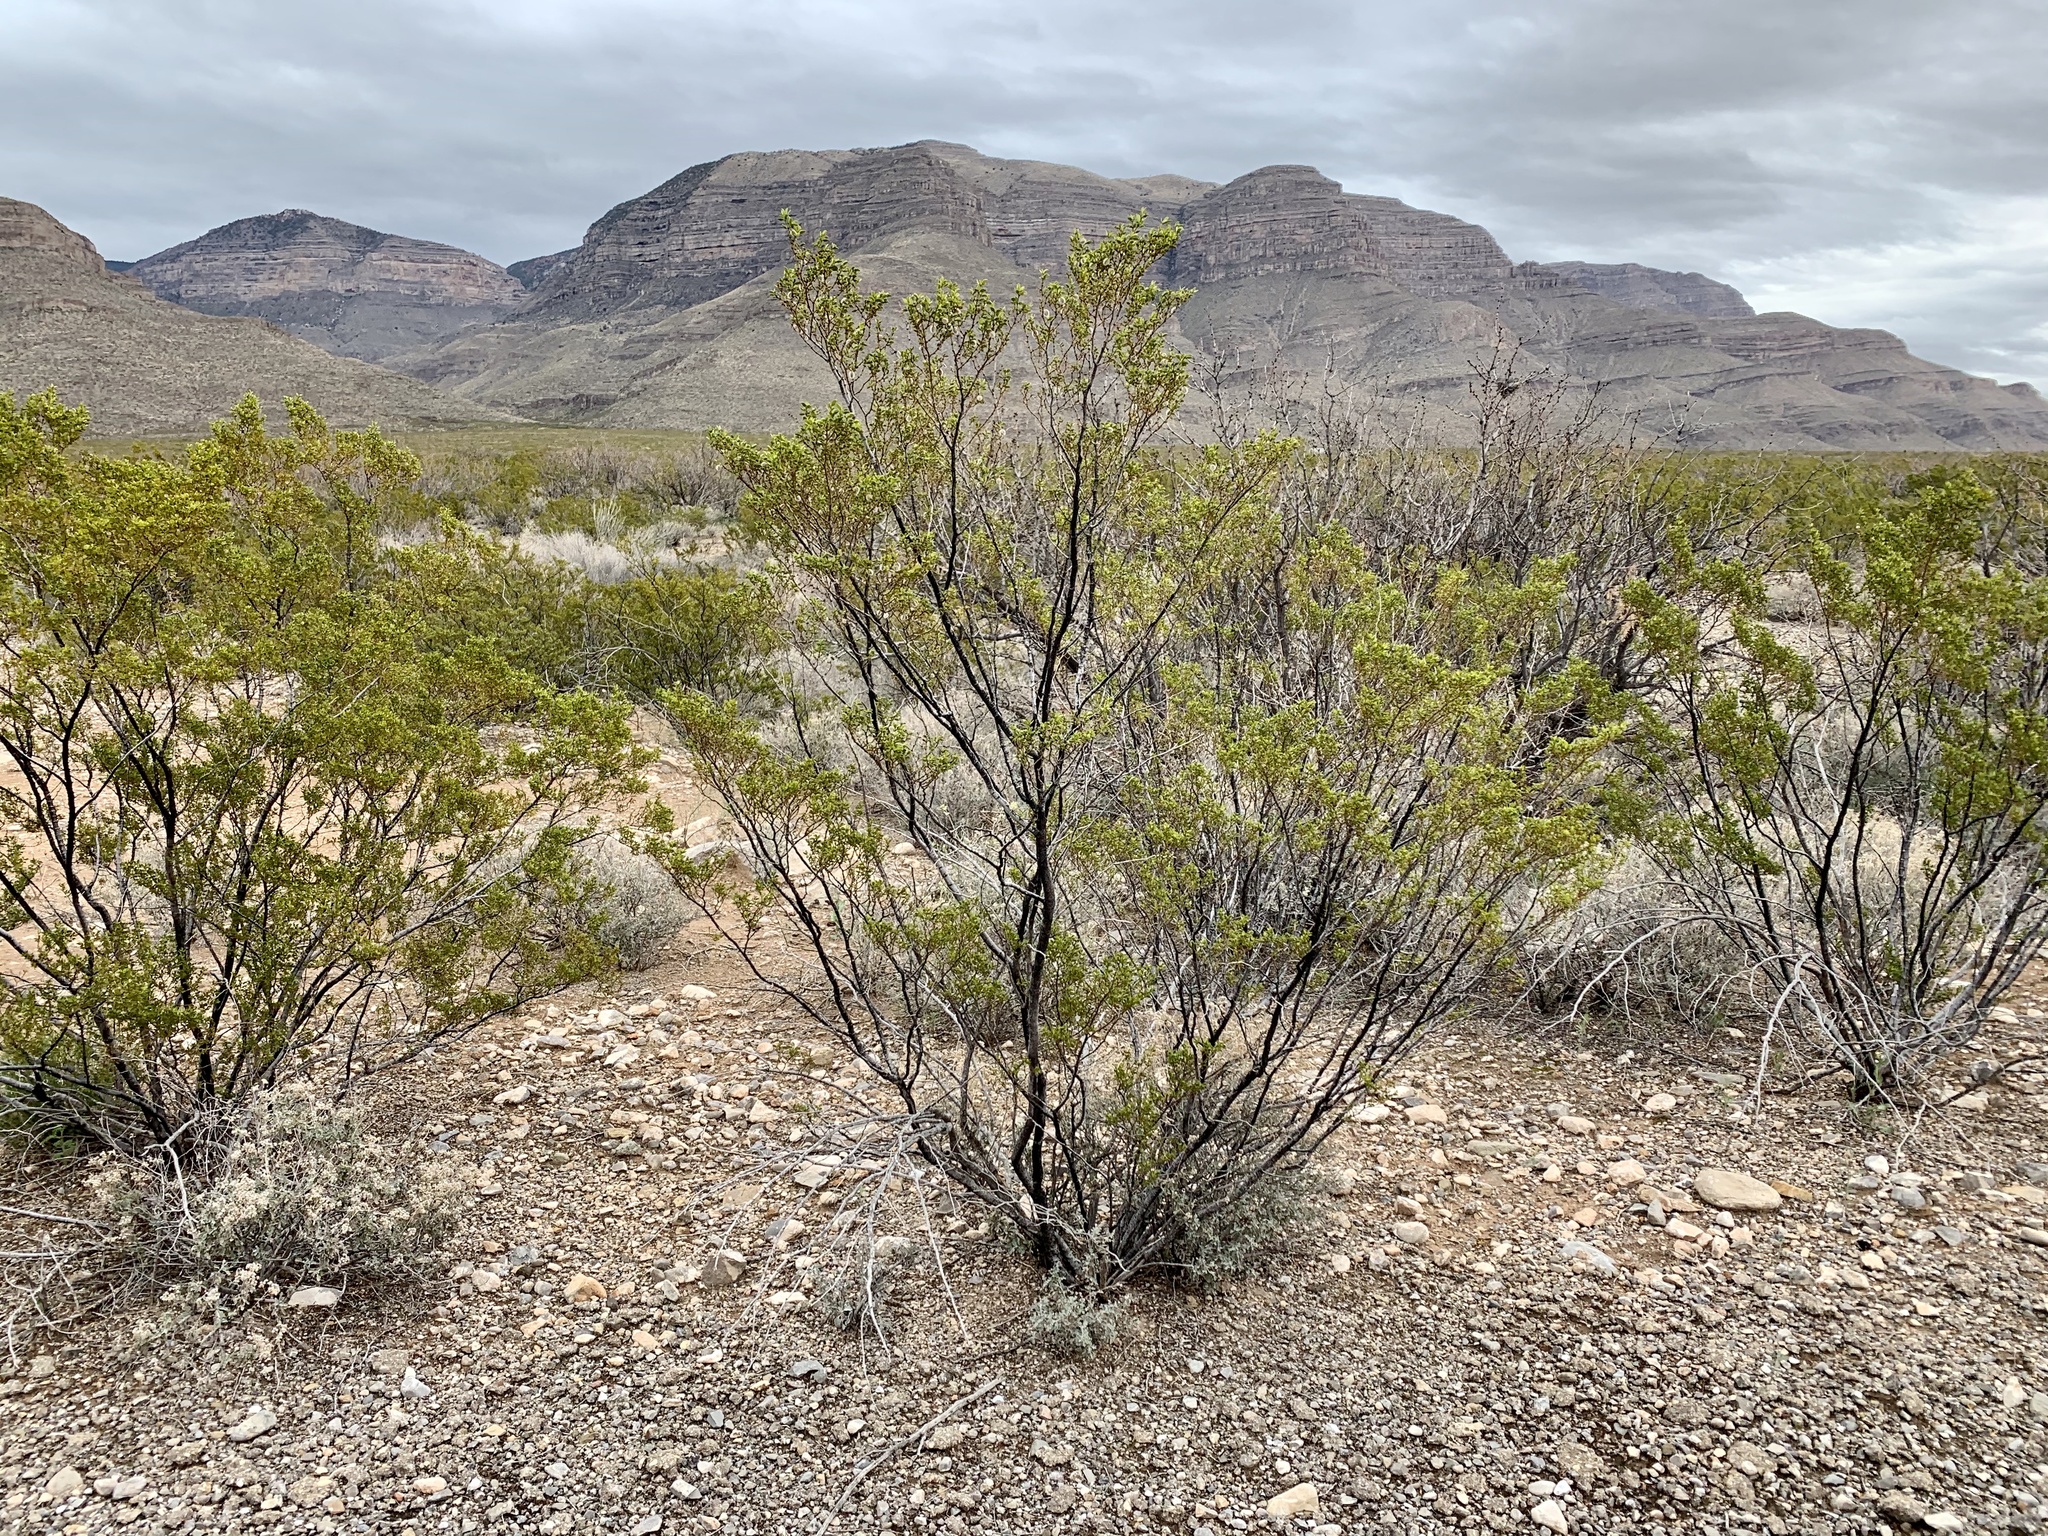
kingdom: Plantae
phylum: Tracheophyta
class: Magnoliopsida
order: Zygophyllales
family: Zygophyllaceae
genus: Larrea
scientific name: Larrea tridentata
